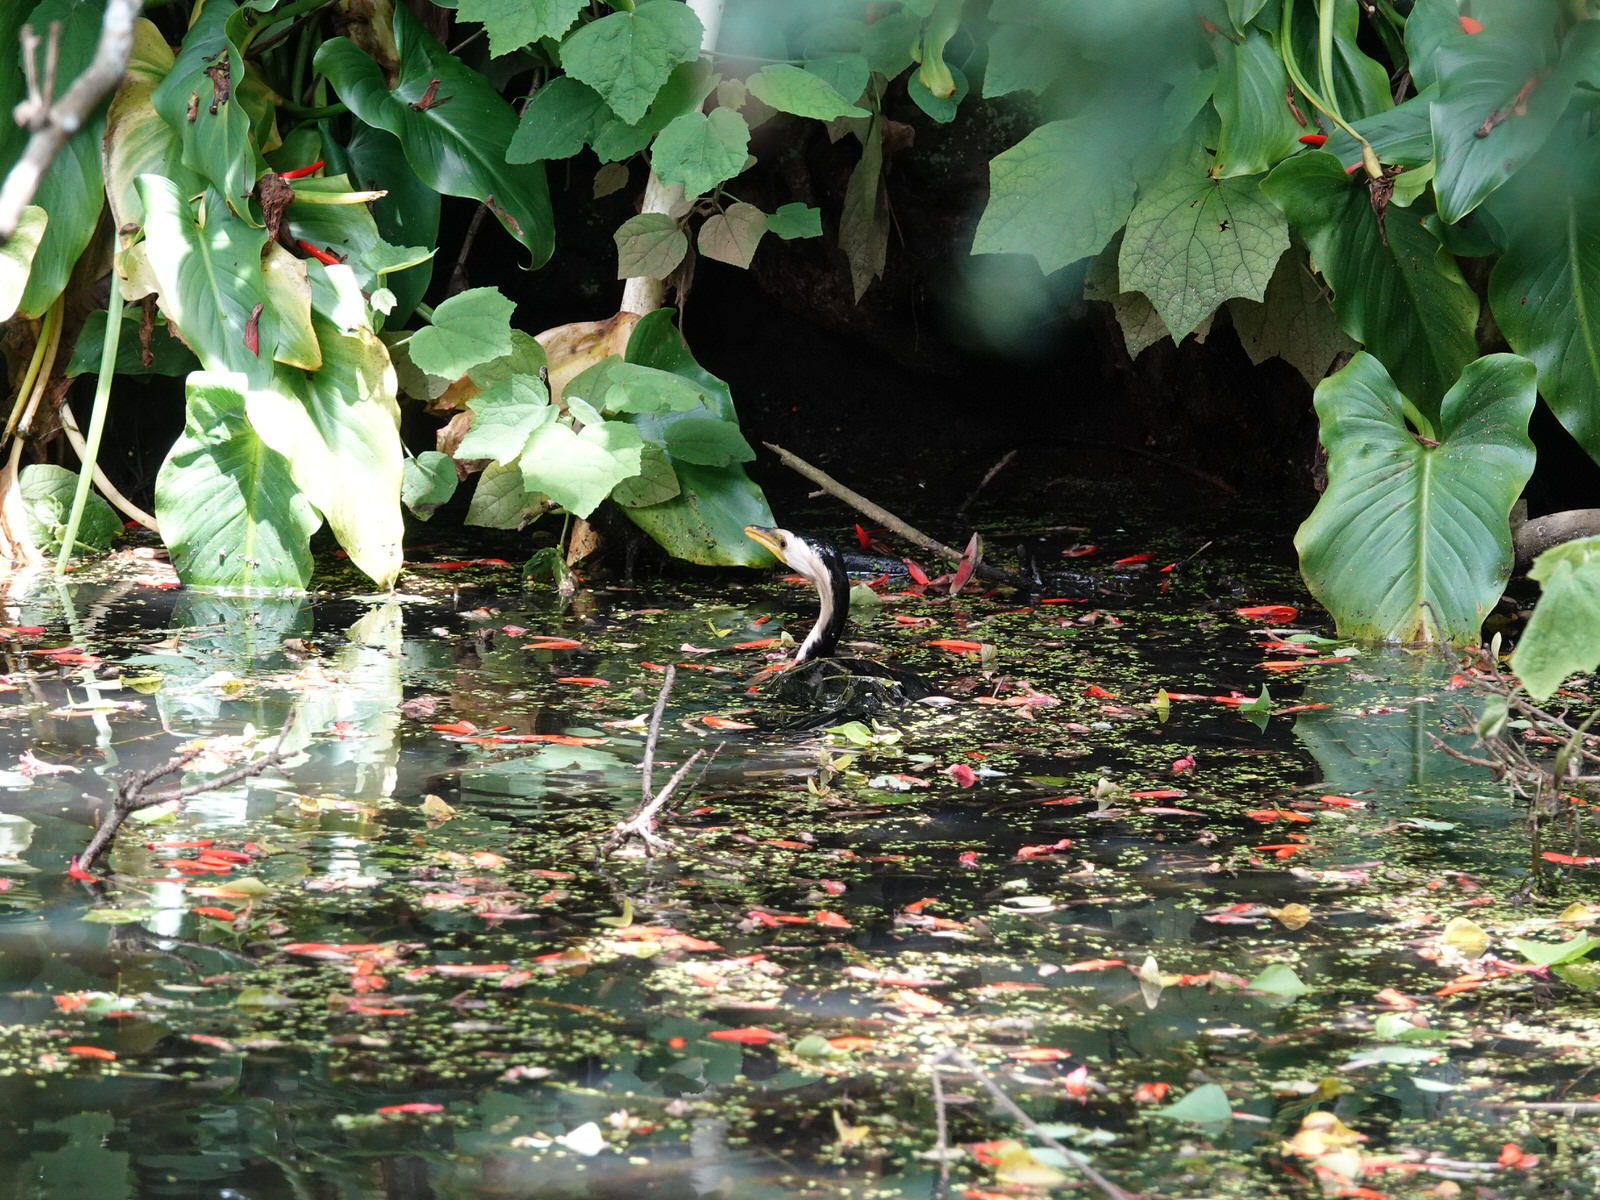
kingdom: Animalia
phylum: Chordata
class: Aves
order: Suliformes
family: Phalacrocoracidae
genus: Microcarbo
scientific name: Microcarbo melanoleucos
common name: Little pied cormorant
